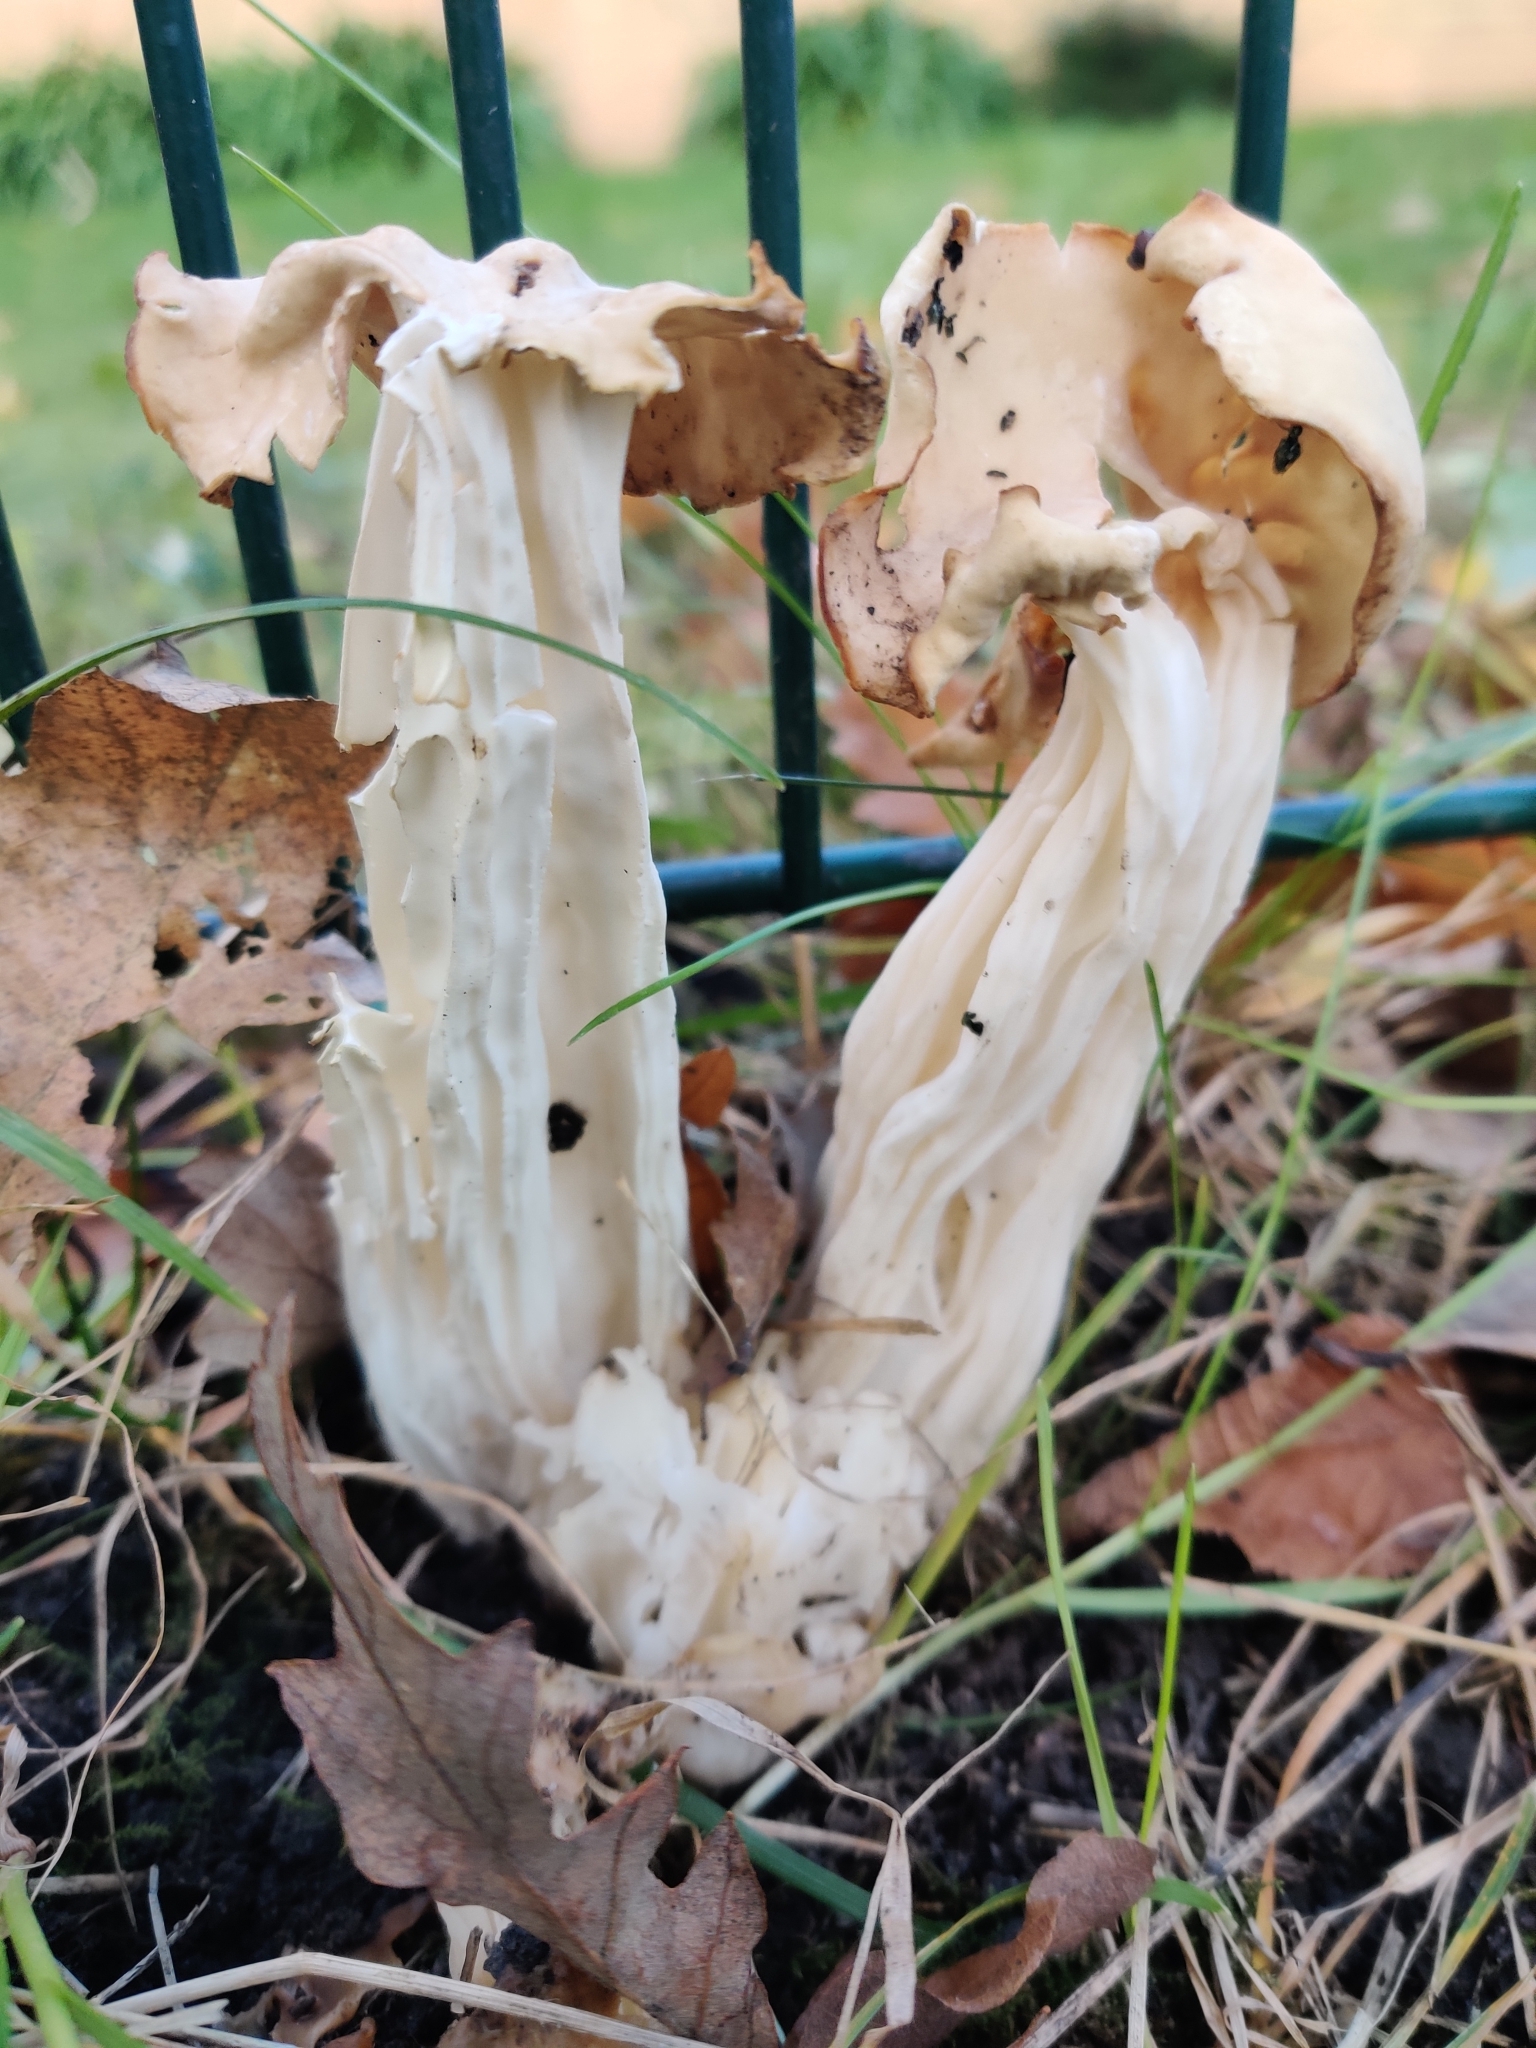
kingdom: Fungi
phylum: Ascomycota
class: Pezizomycetes
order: Pezizales
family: Helvellaceae
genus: Helvella
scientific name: Helvella crispa
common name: White saddle
